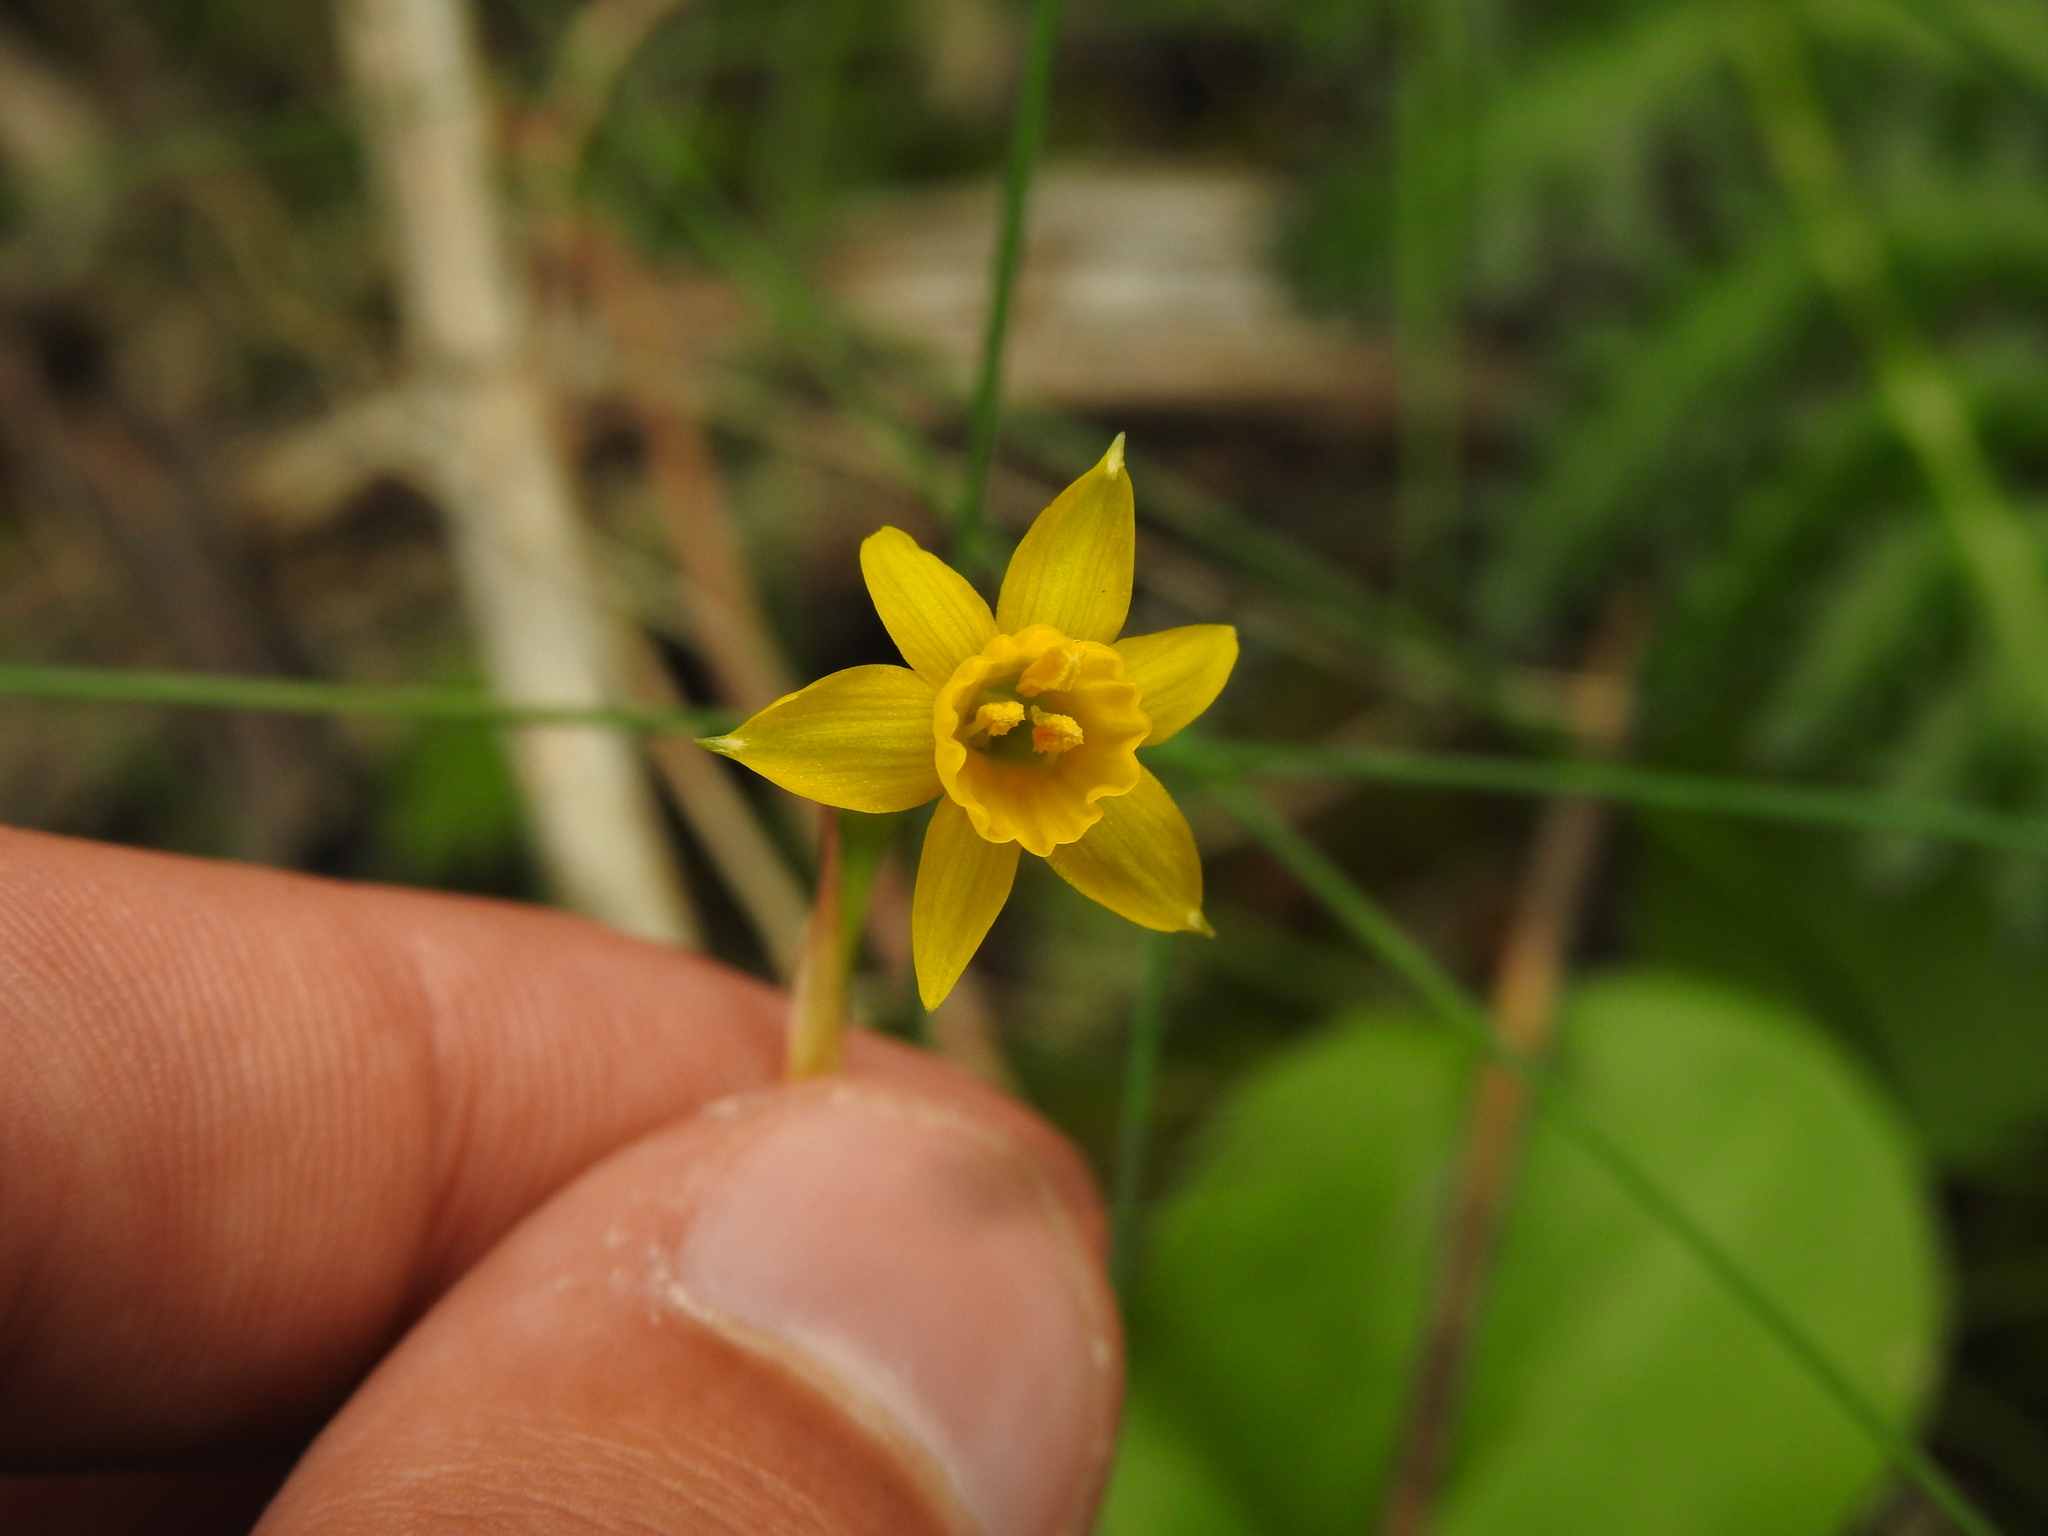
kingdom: Plantae
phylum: Tracheophyta
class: Liliopsida
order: Asparagales
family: Amaryllidaceae
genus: Narcissus
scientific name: Narcissus gaditanus
